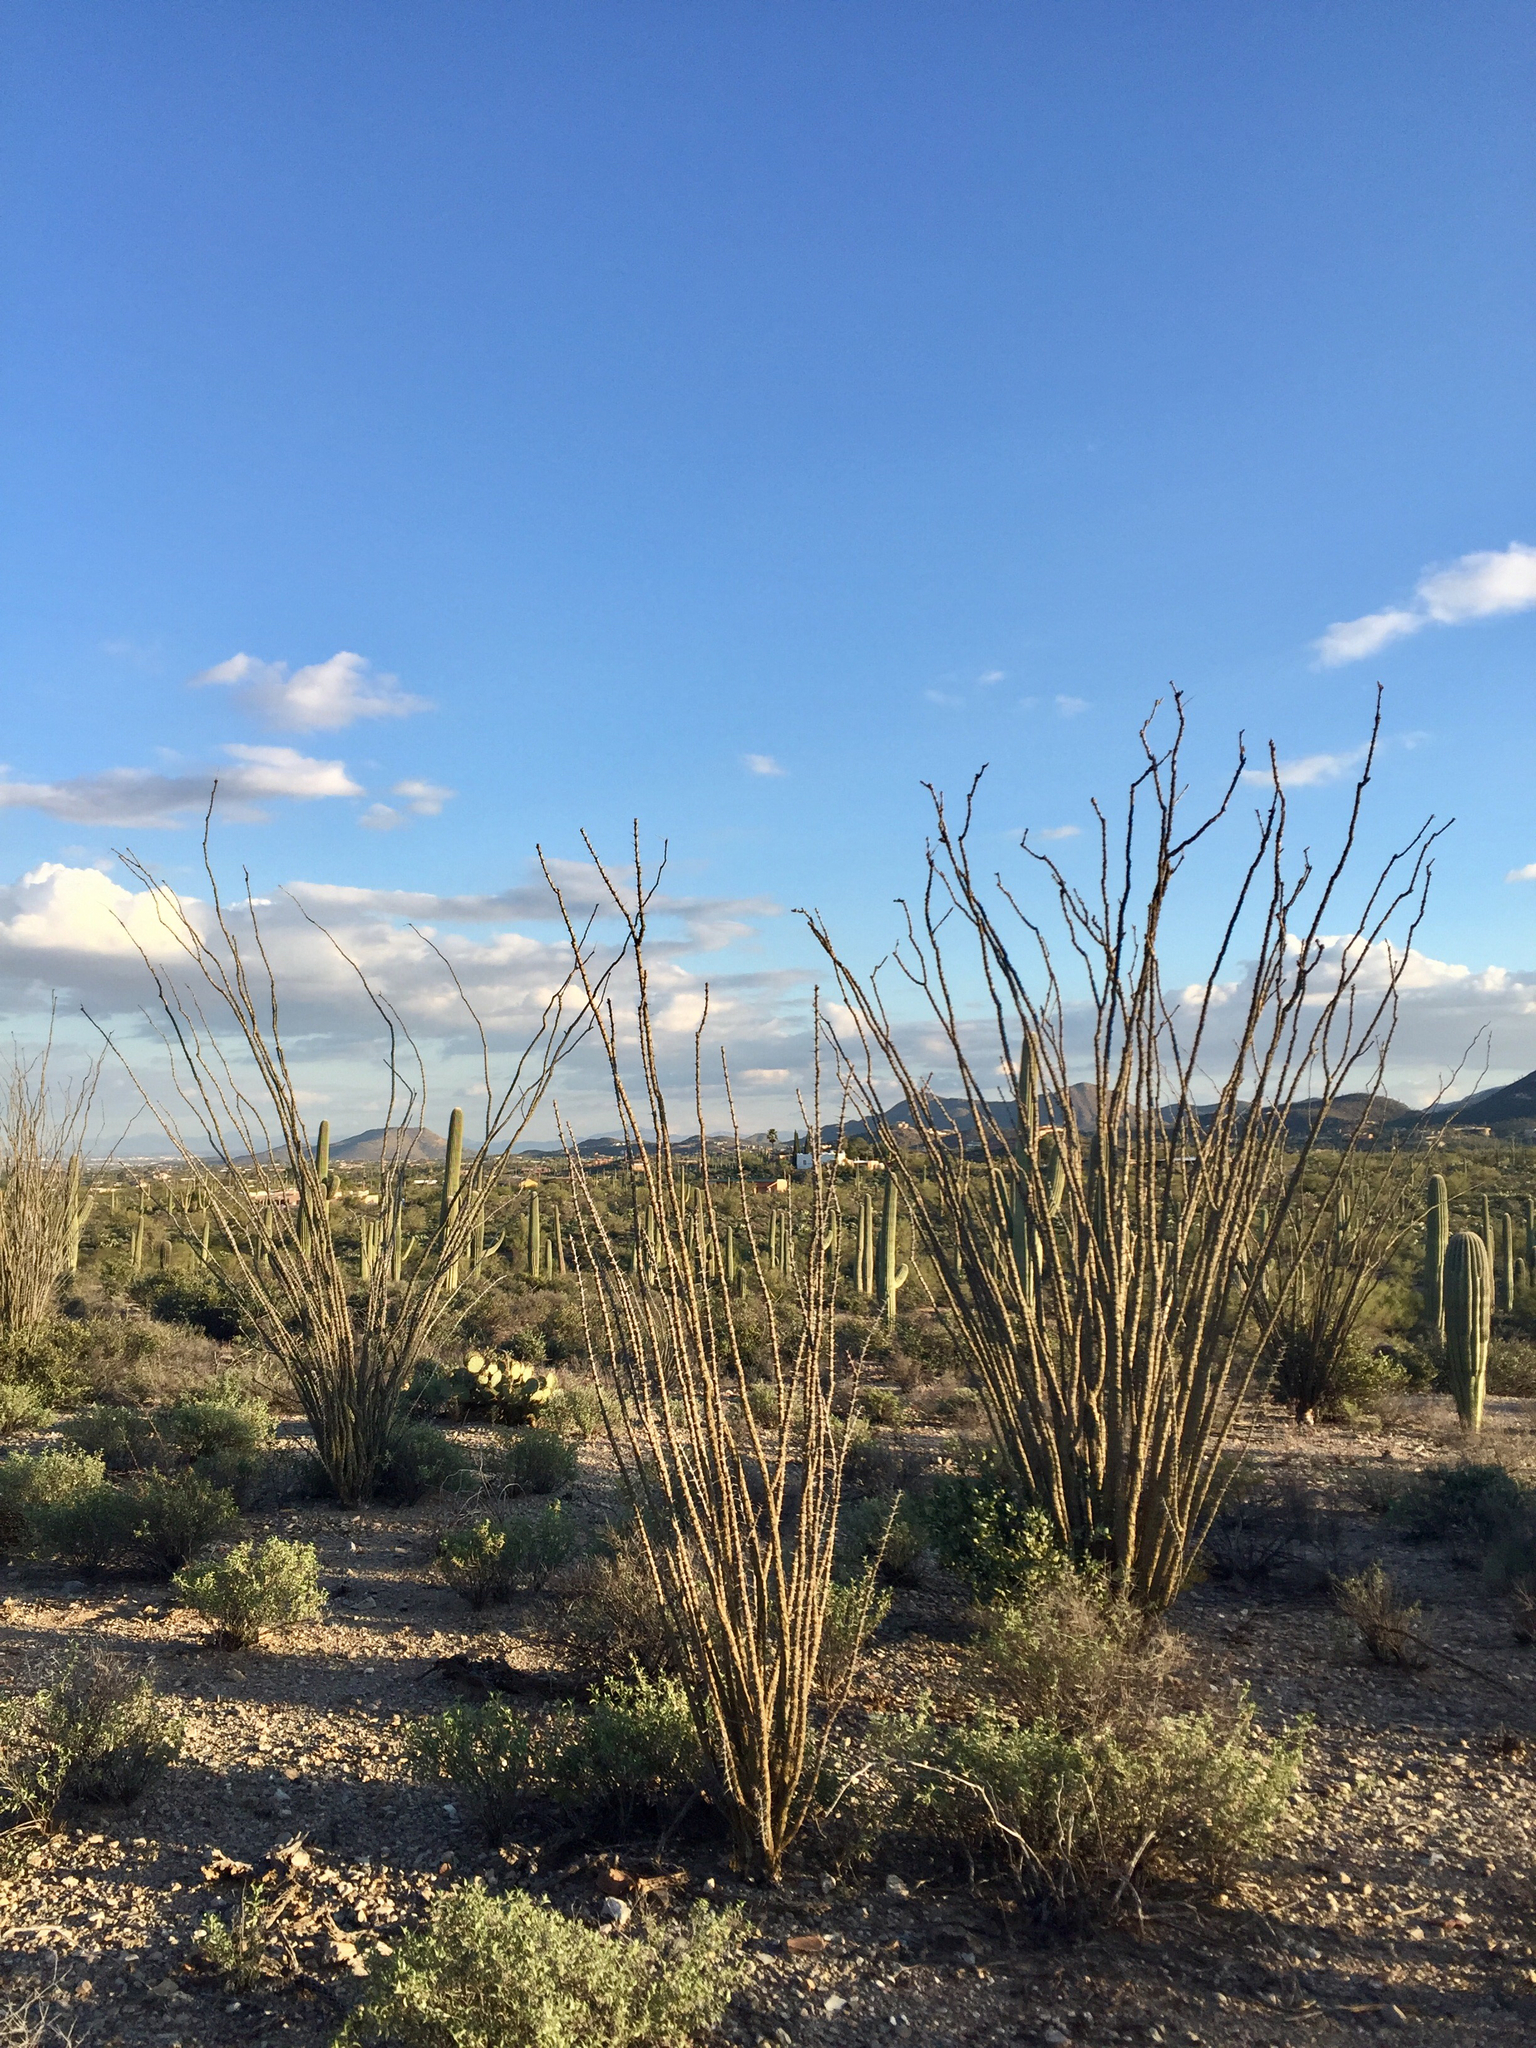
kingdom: Plantae
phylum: Tracheophyta
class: Magnoliopsida
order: Ericales
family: Fouquieriaceae
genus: Fouquieria
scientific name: Fouquieria splendens
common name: Vine-cactus
